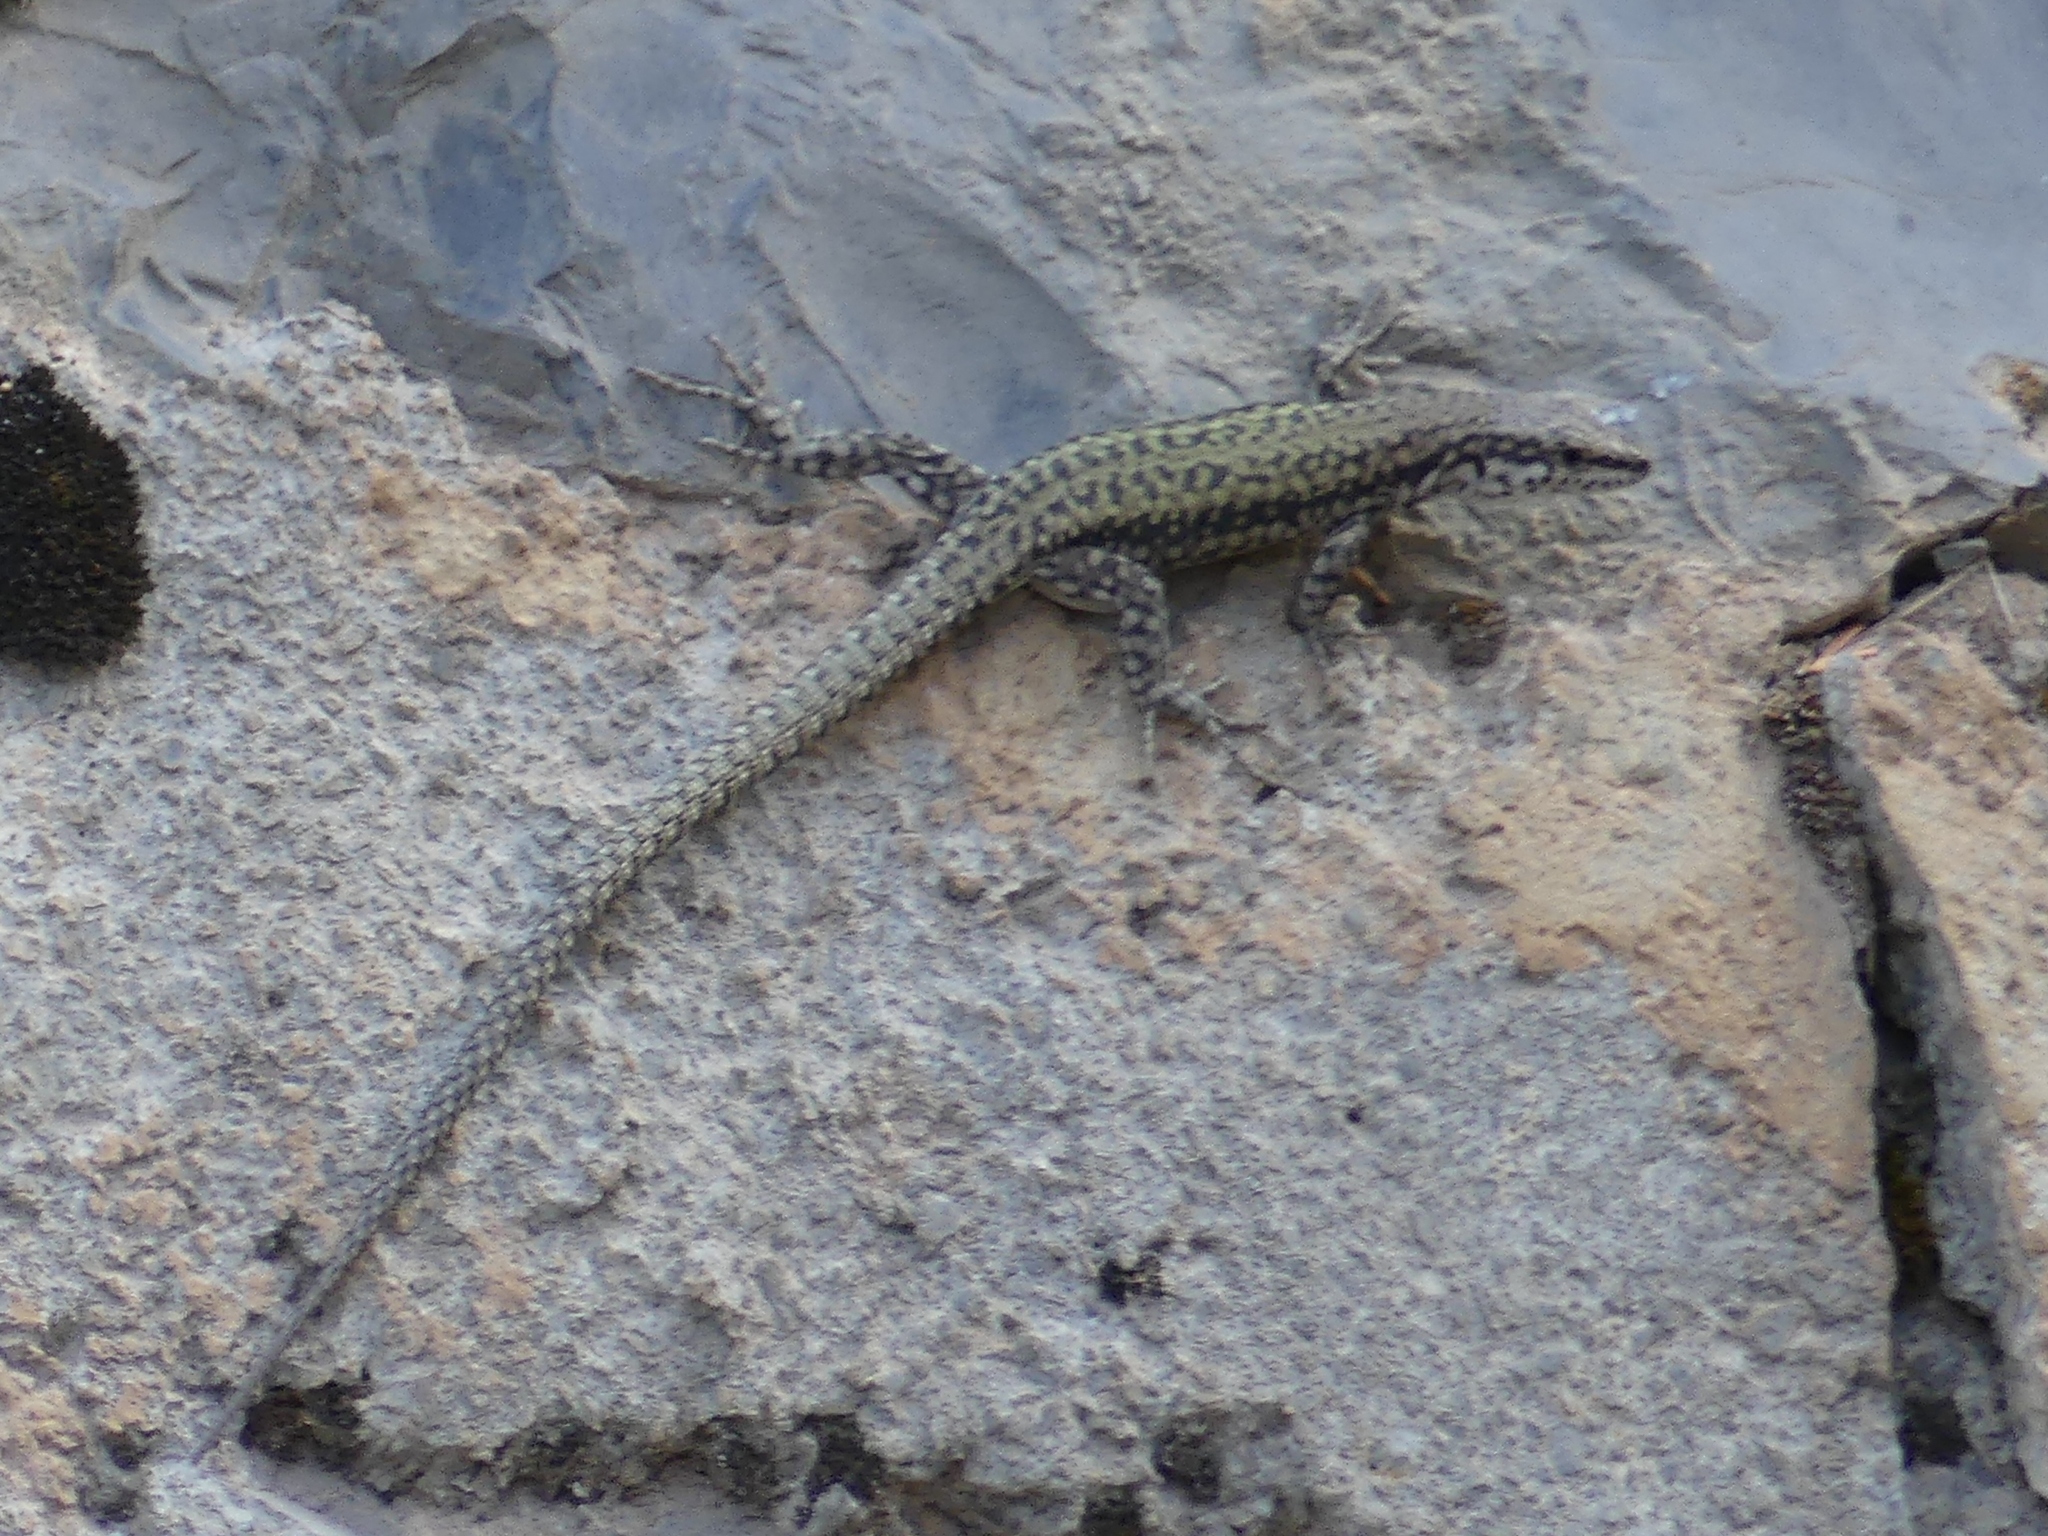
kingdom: Animalia
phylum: Chordata
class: Squamata
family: Lacertidae
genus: Podarcis
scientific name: Podarcis vaucheri
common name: Vaucher's wall lizard
